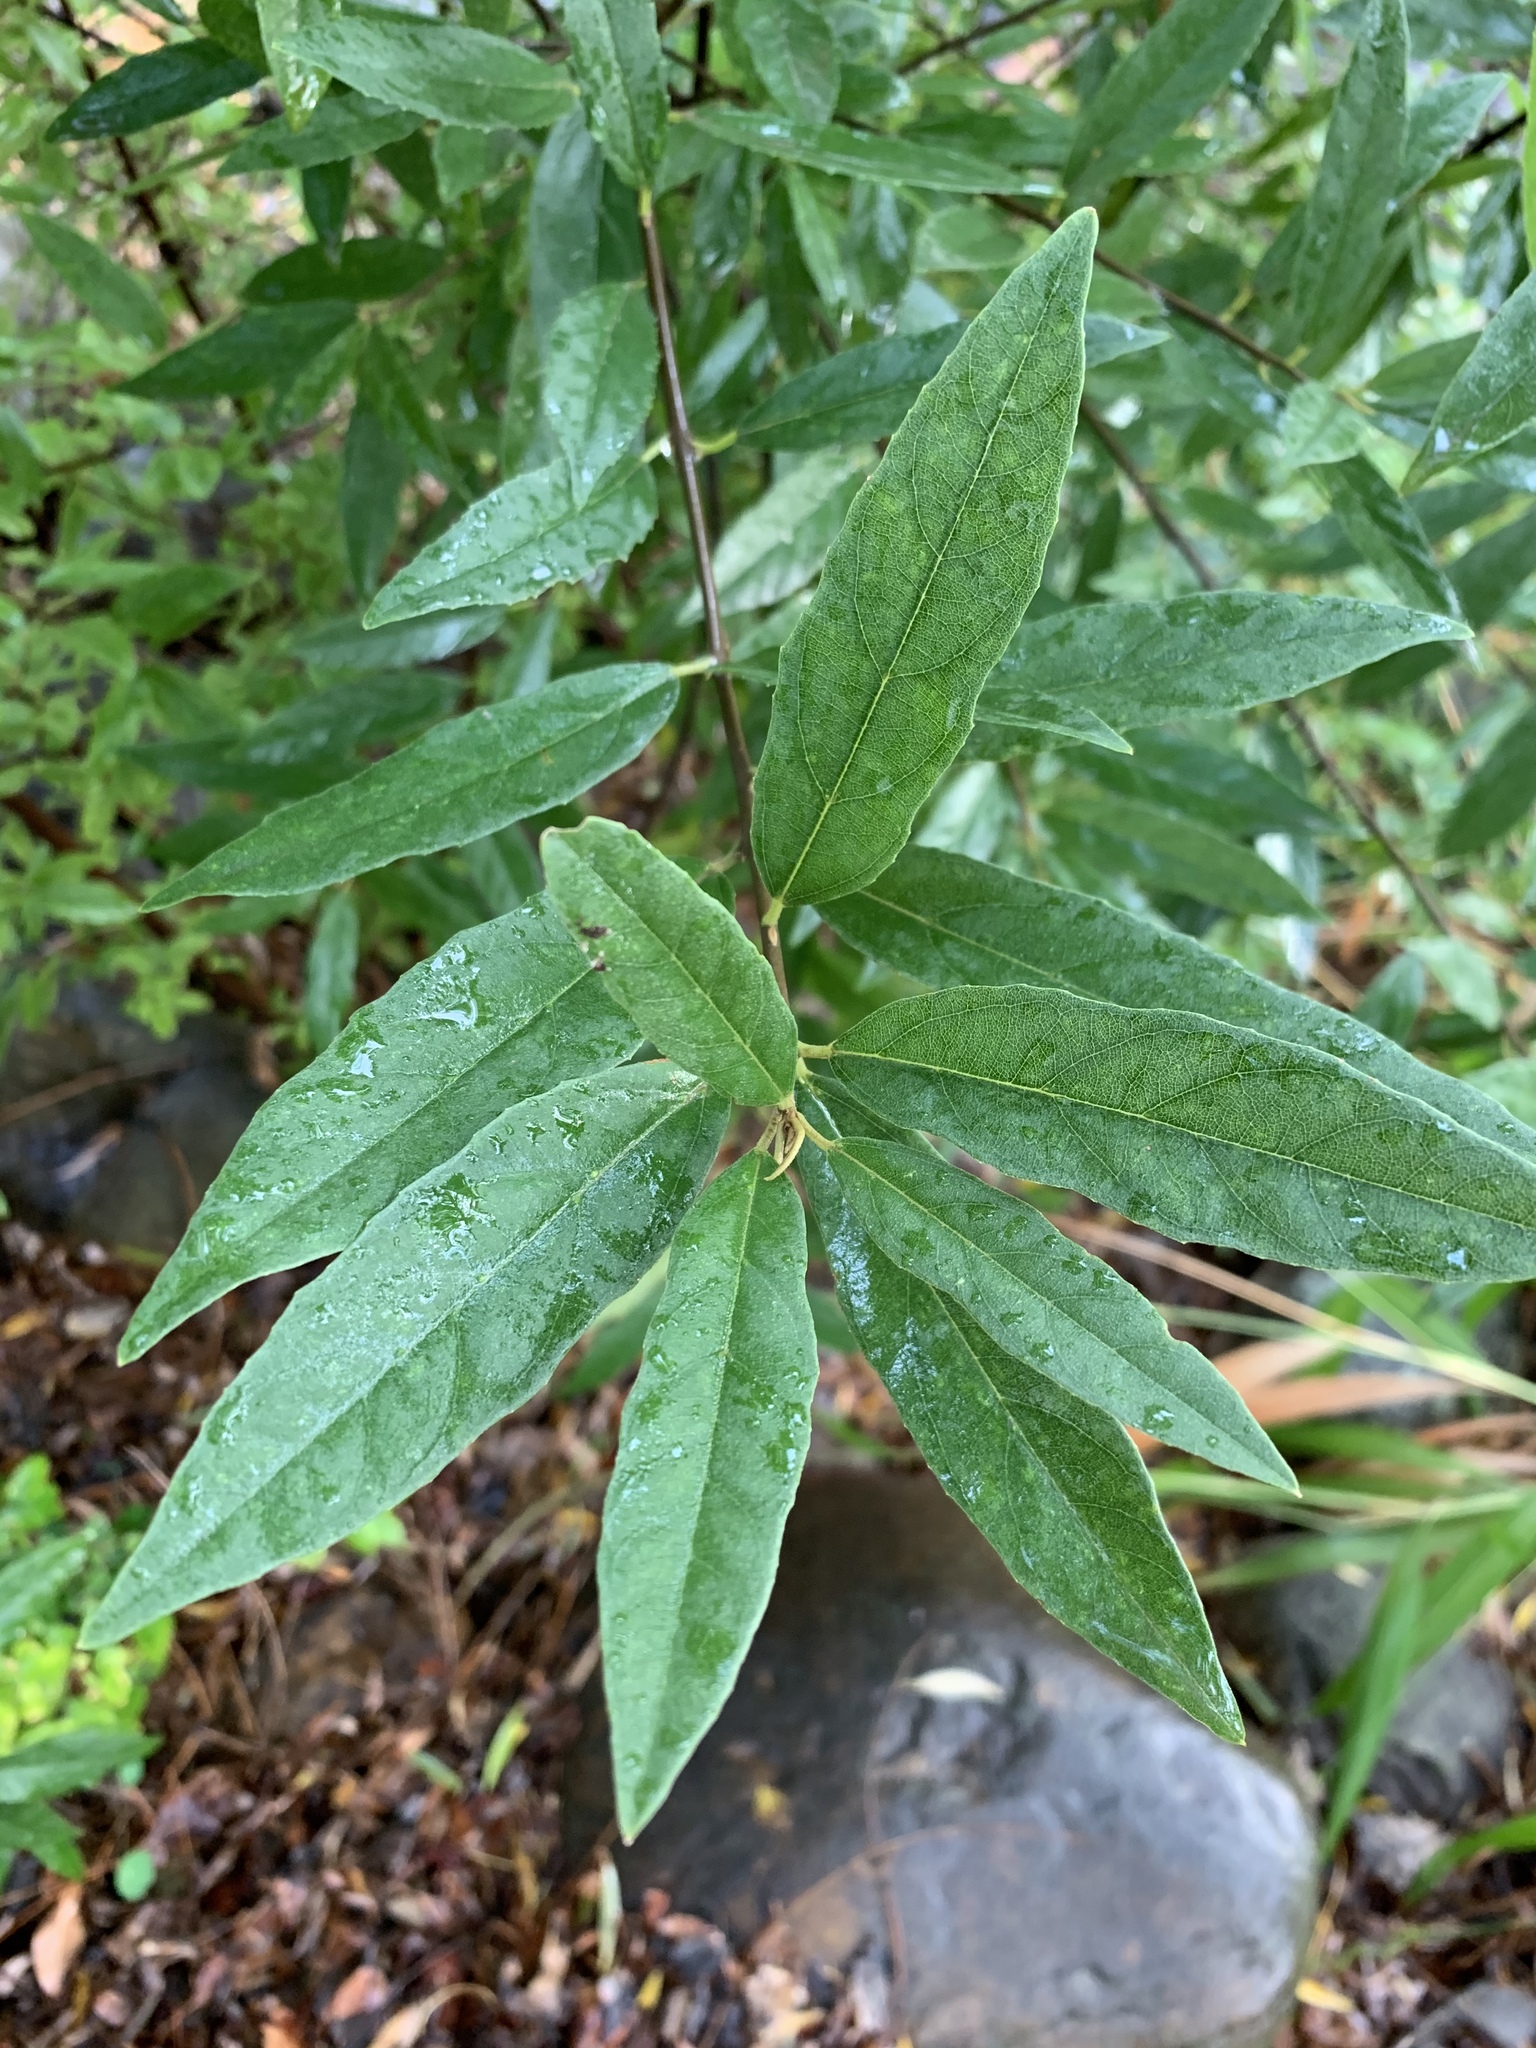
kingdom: Plantae
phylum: Tracheophyta
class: Magnoliopsida
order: Malpighiales
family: Achariaceae
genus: Kiggelaria
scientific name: Kiggelaria africana
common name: Wild peach
